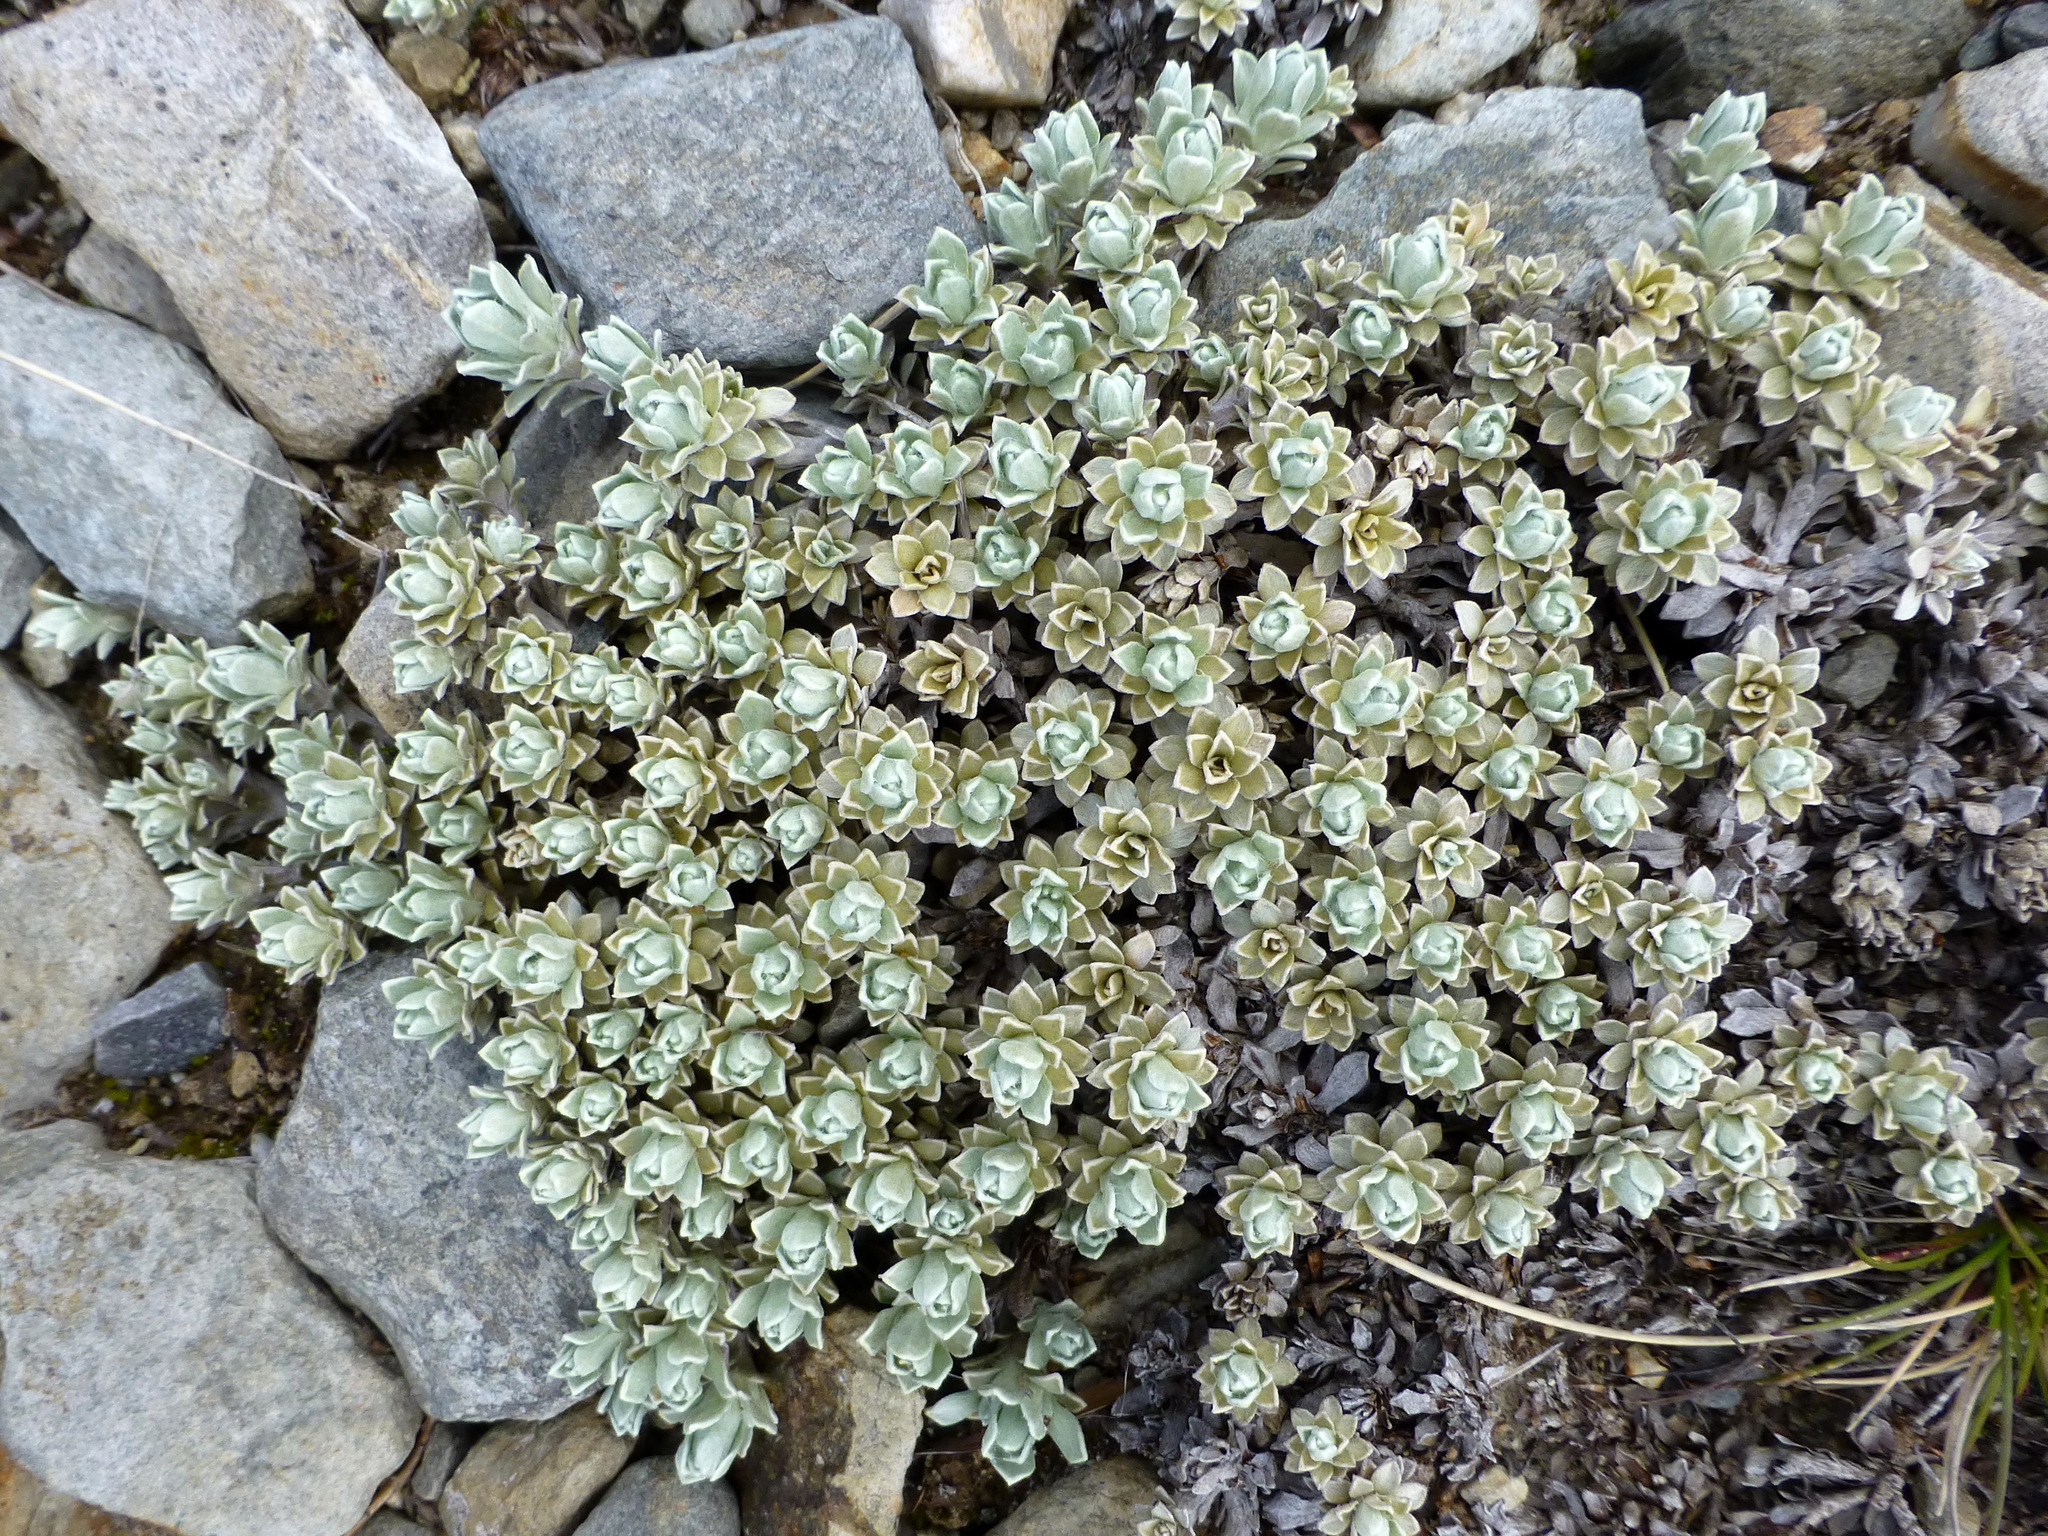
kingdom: Plantae
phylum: Tracheophyta
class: Magnoliopsida
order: Asterales
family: Asteraceae
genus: Ewartia
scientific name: Ewartia nubigena
